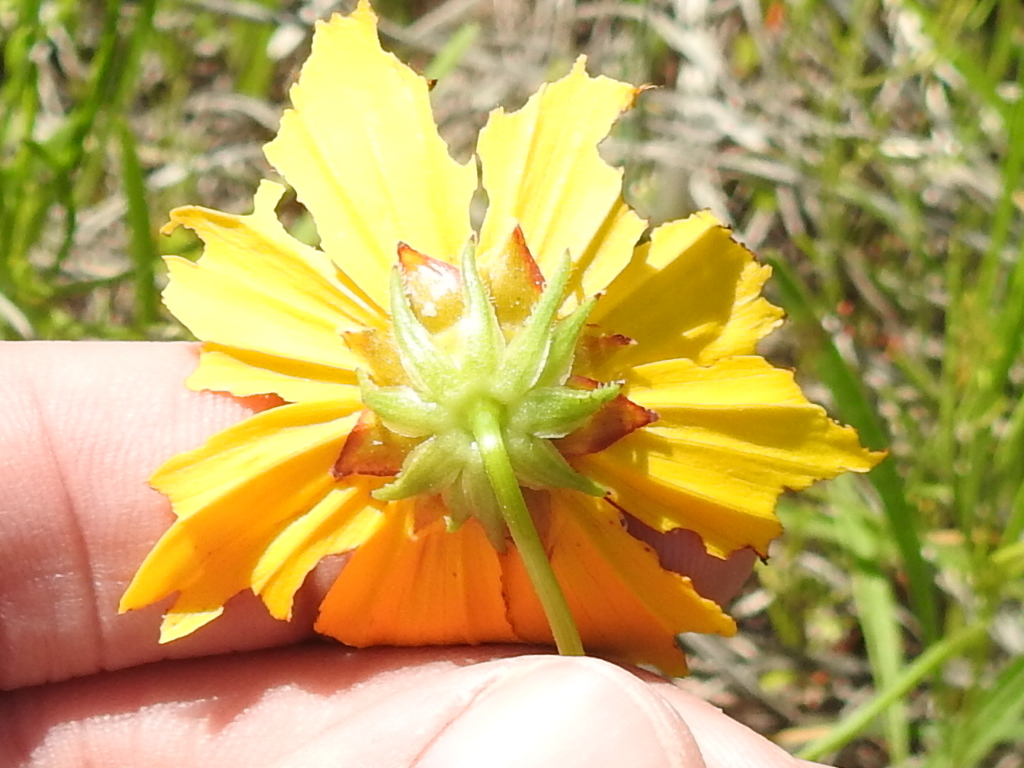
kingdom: Plantae
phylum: Tracheophyta
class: Magnoliopsida
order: Asterales
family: Asteraceae
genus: Coreopsis
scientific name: Coreopsis lanceolata
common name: Garden coreopsis
